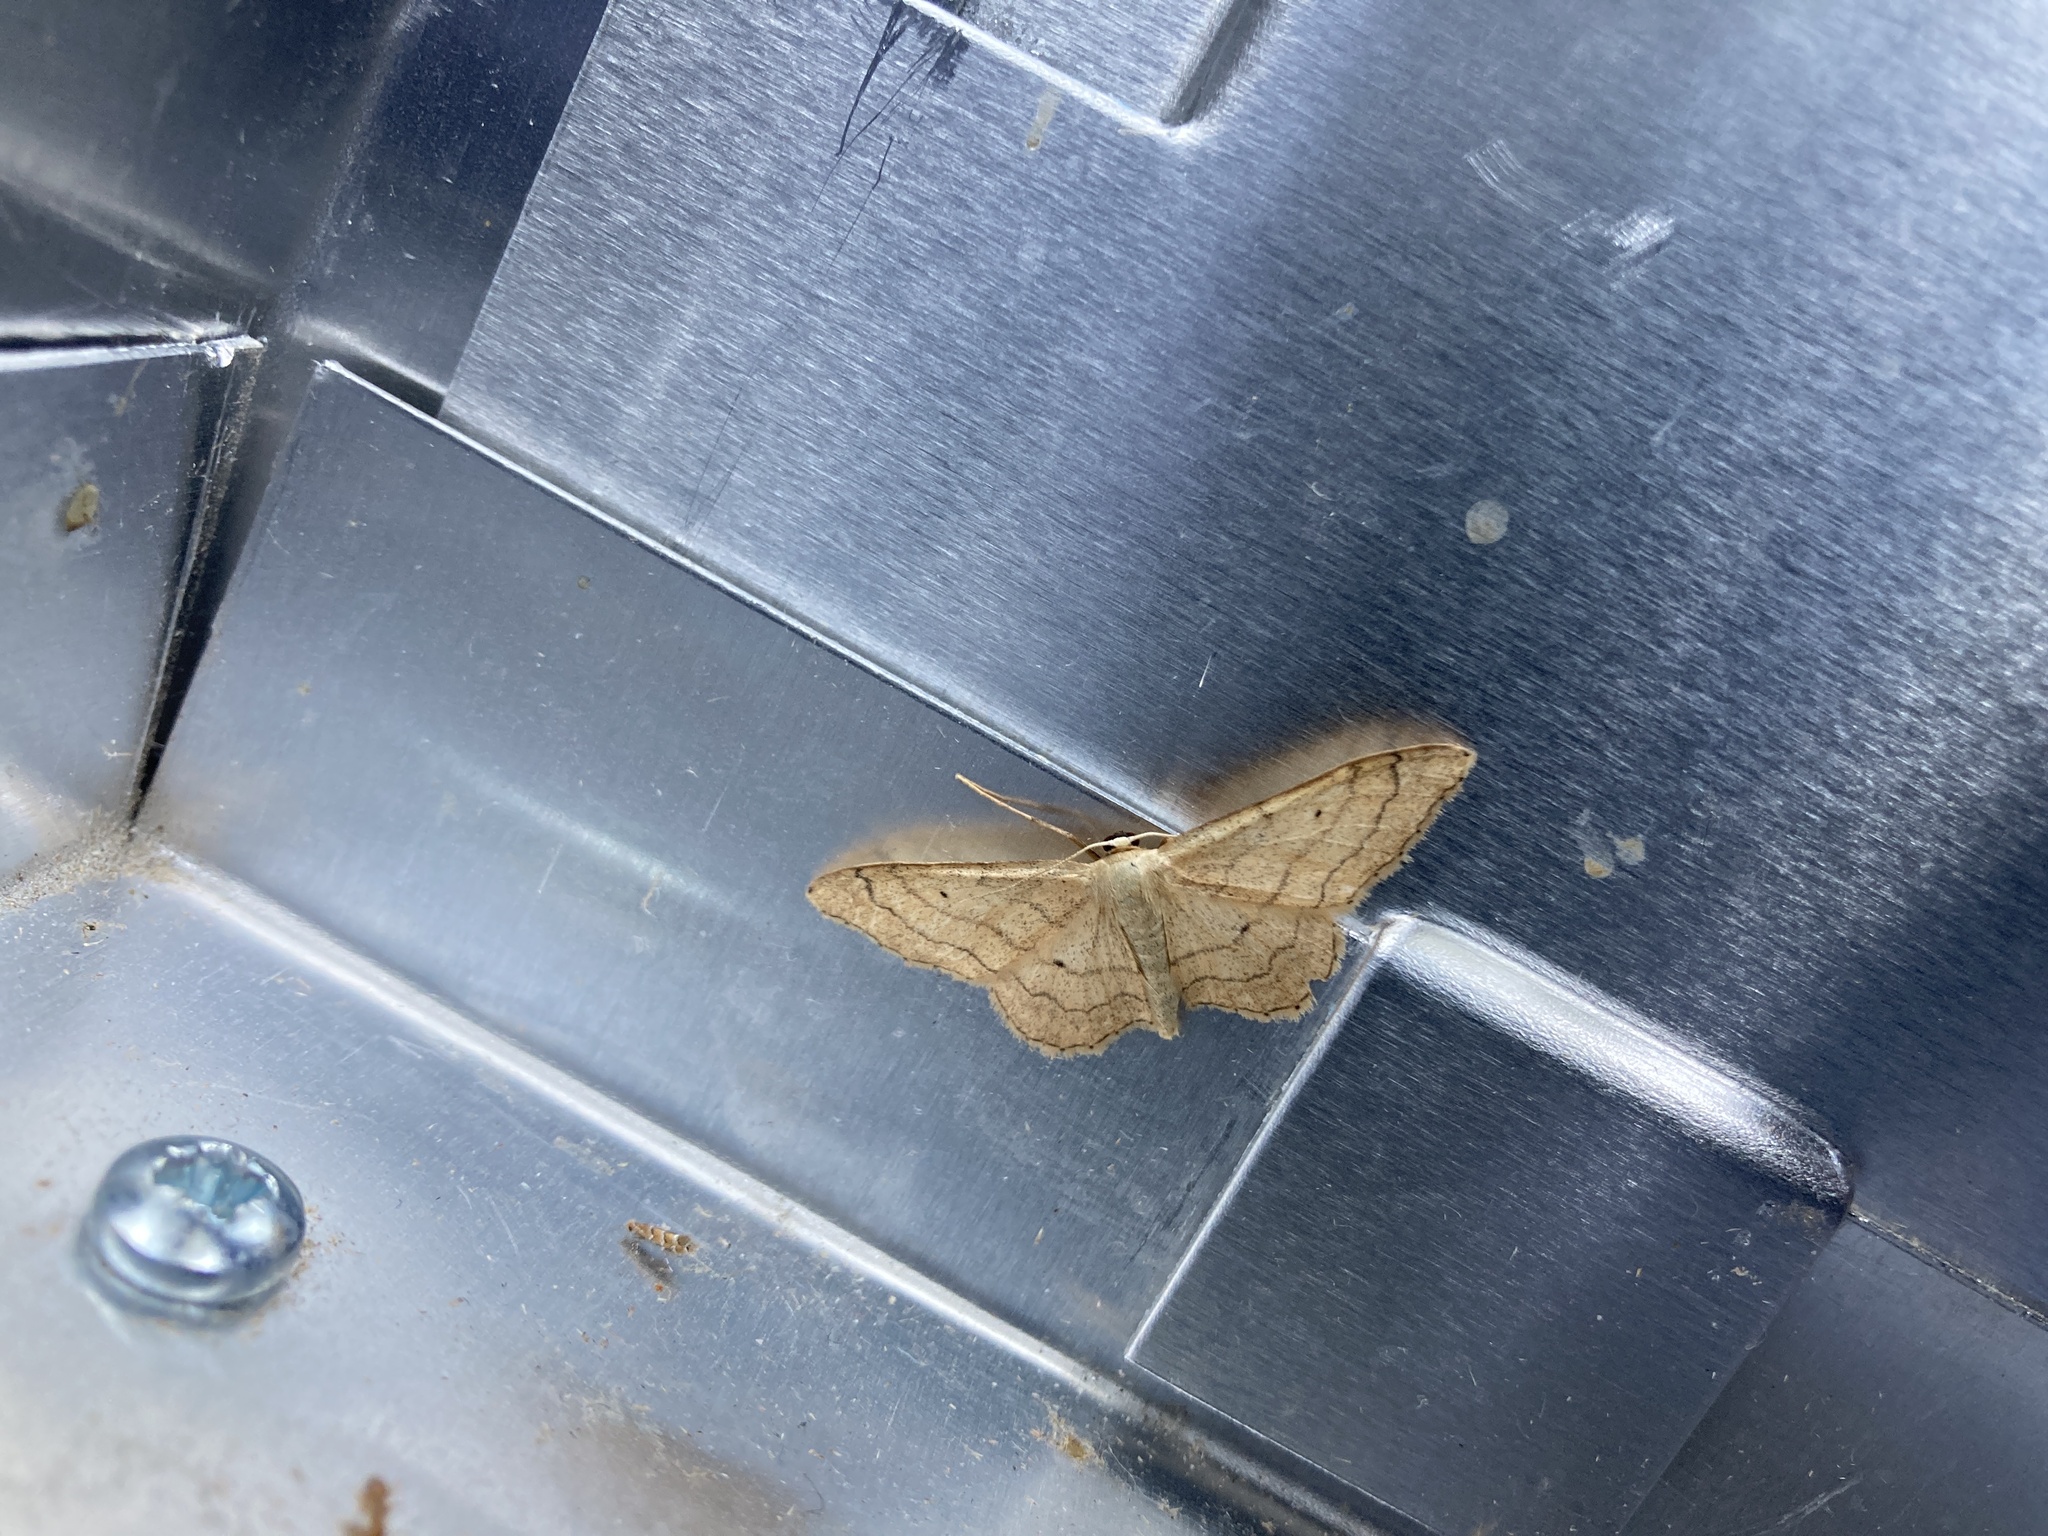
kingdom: Animalia
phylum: Arthropoda
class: Insecta
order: Lepidoptera
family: Geometridae
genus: Idaea
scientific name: Idaea aversata
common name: Riband wave
